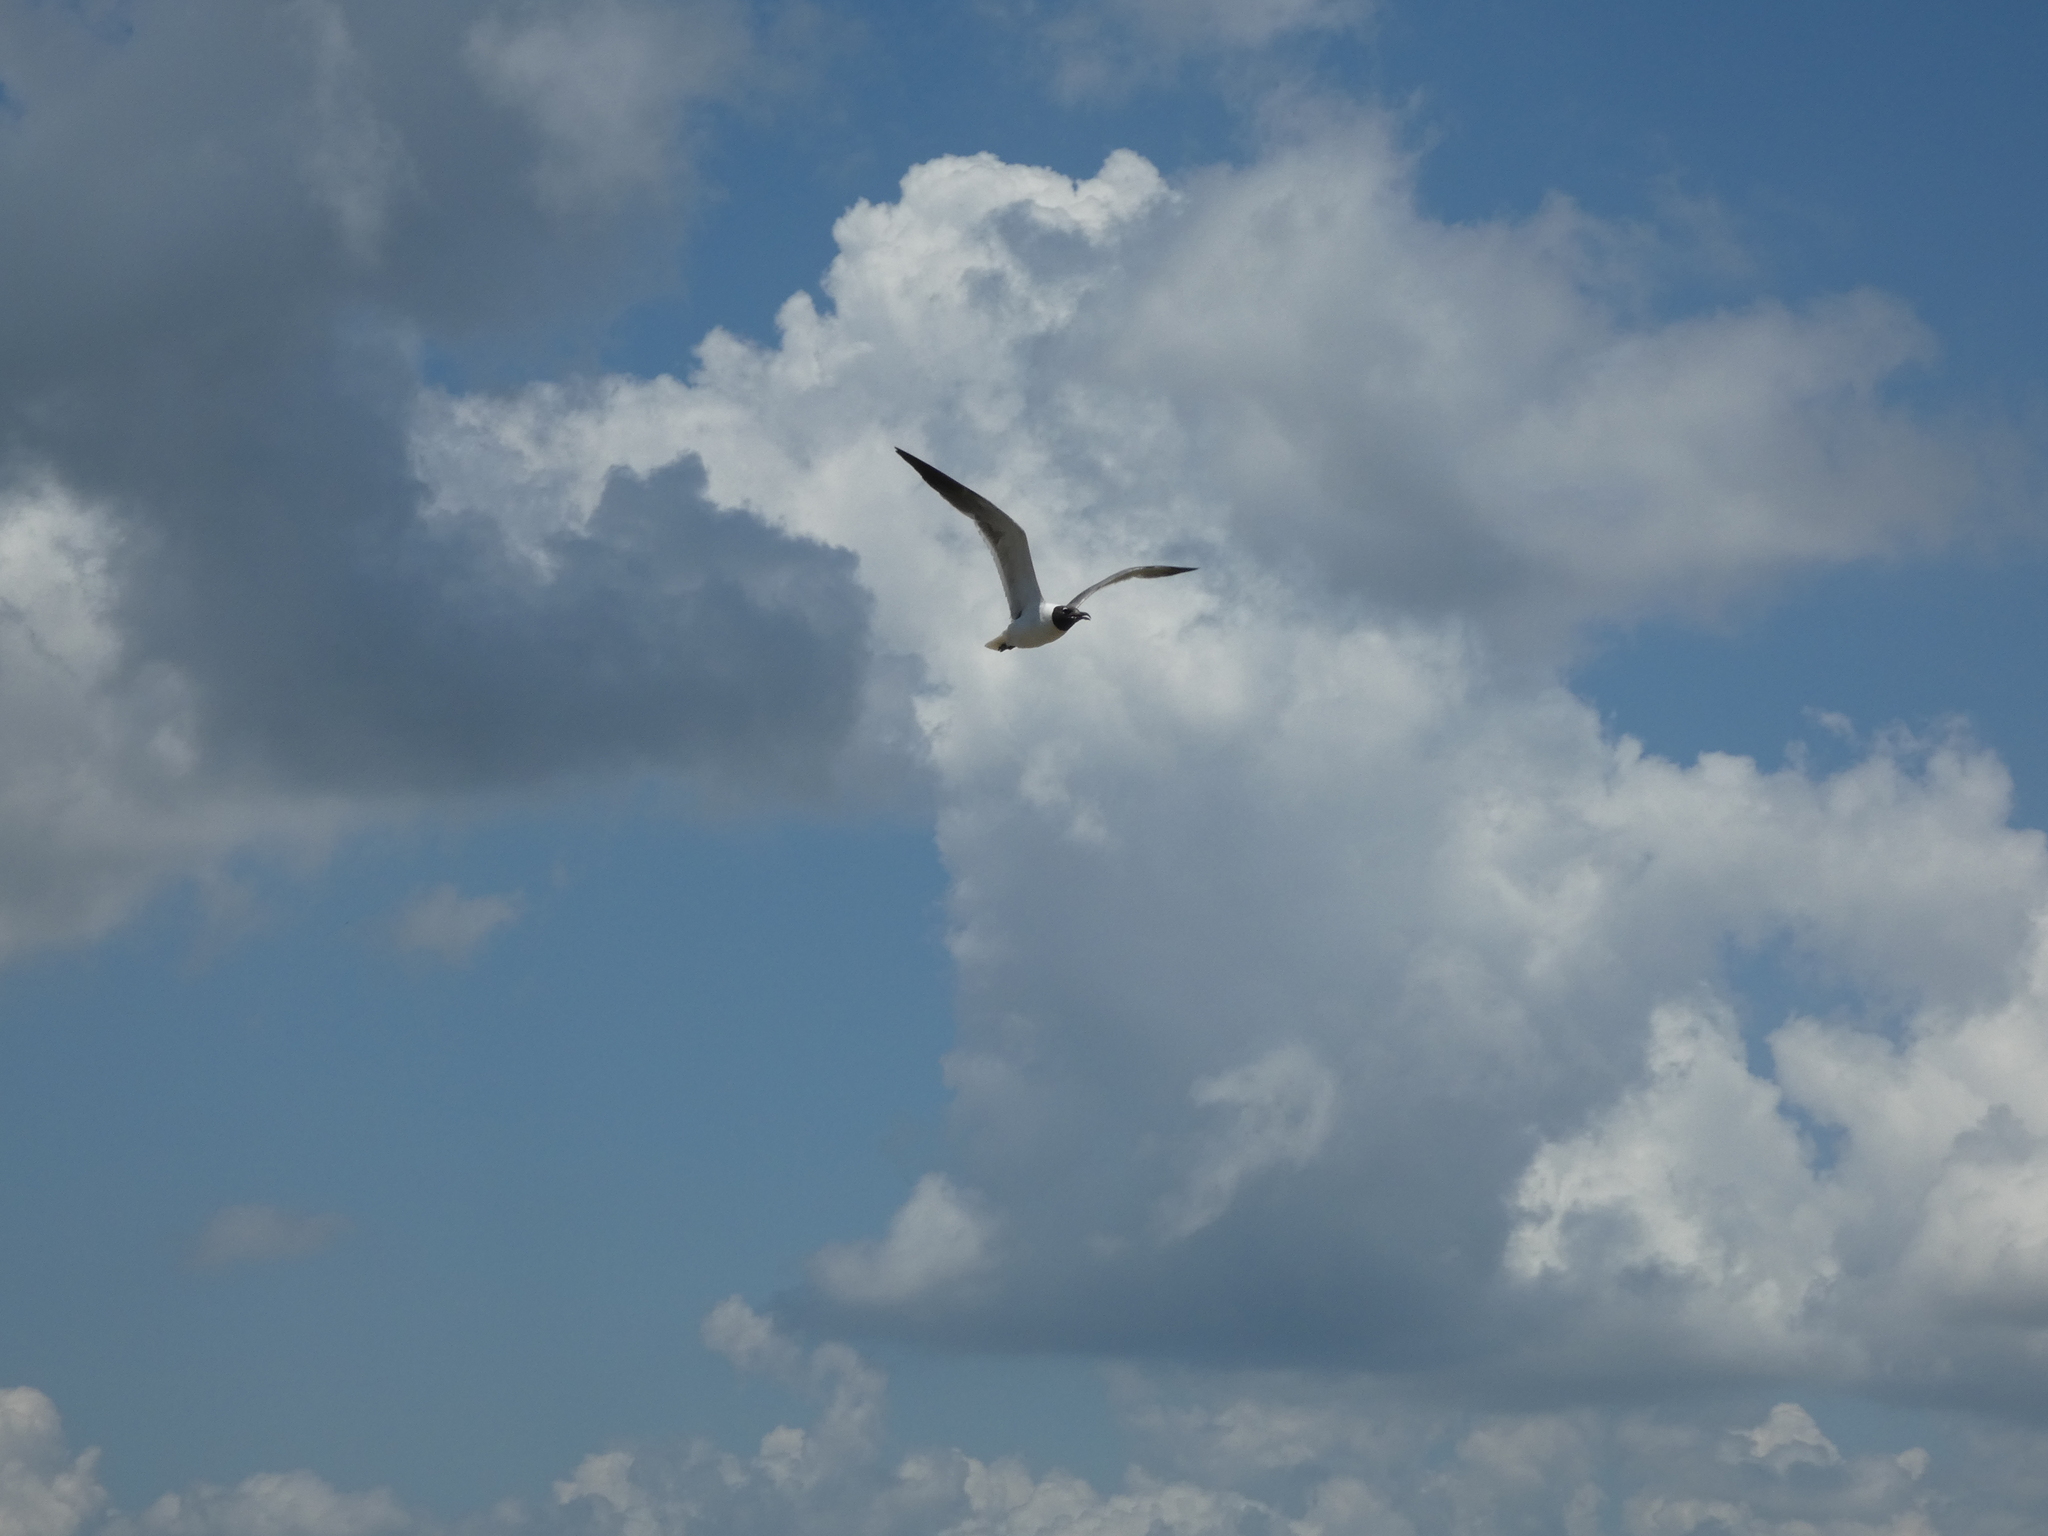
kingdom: Animalia
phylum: Chordata
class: Aves
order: Charadriiformes
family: Laridae
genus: Leucophaeus
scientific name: Leucophaeus atricilla
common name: Laughing gull
